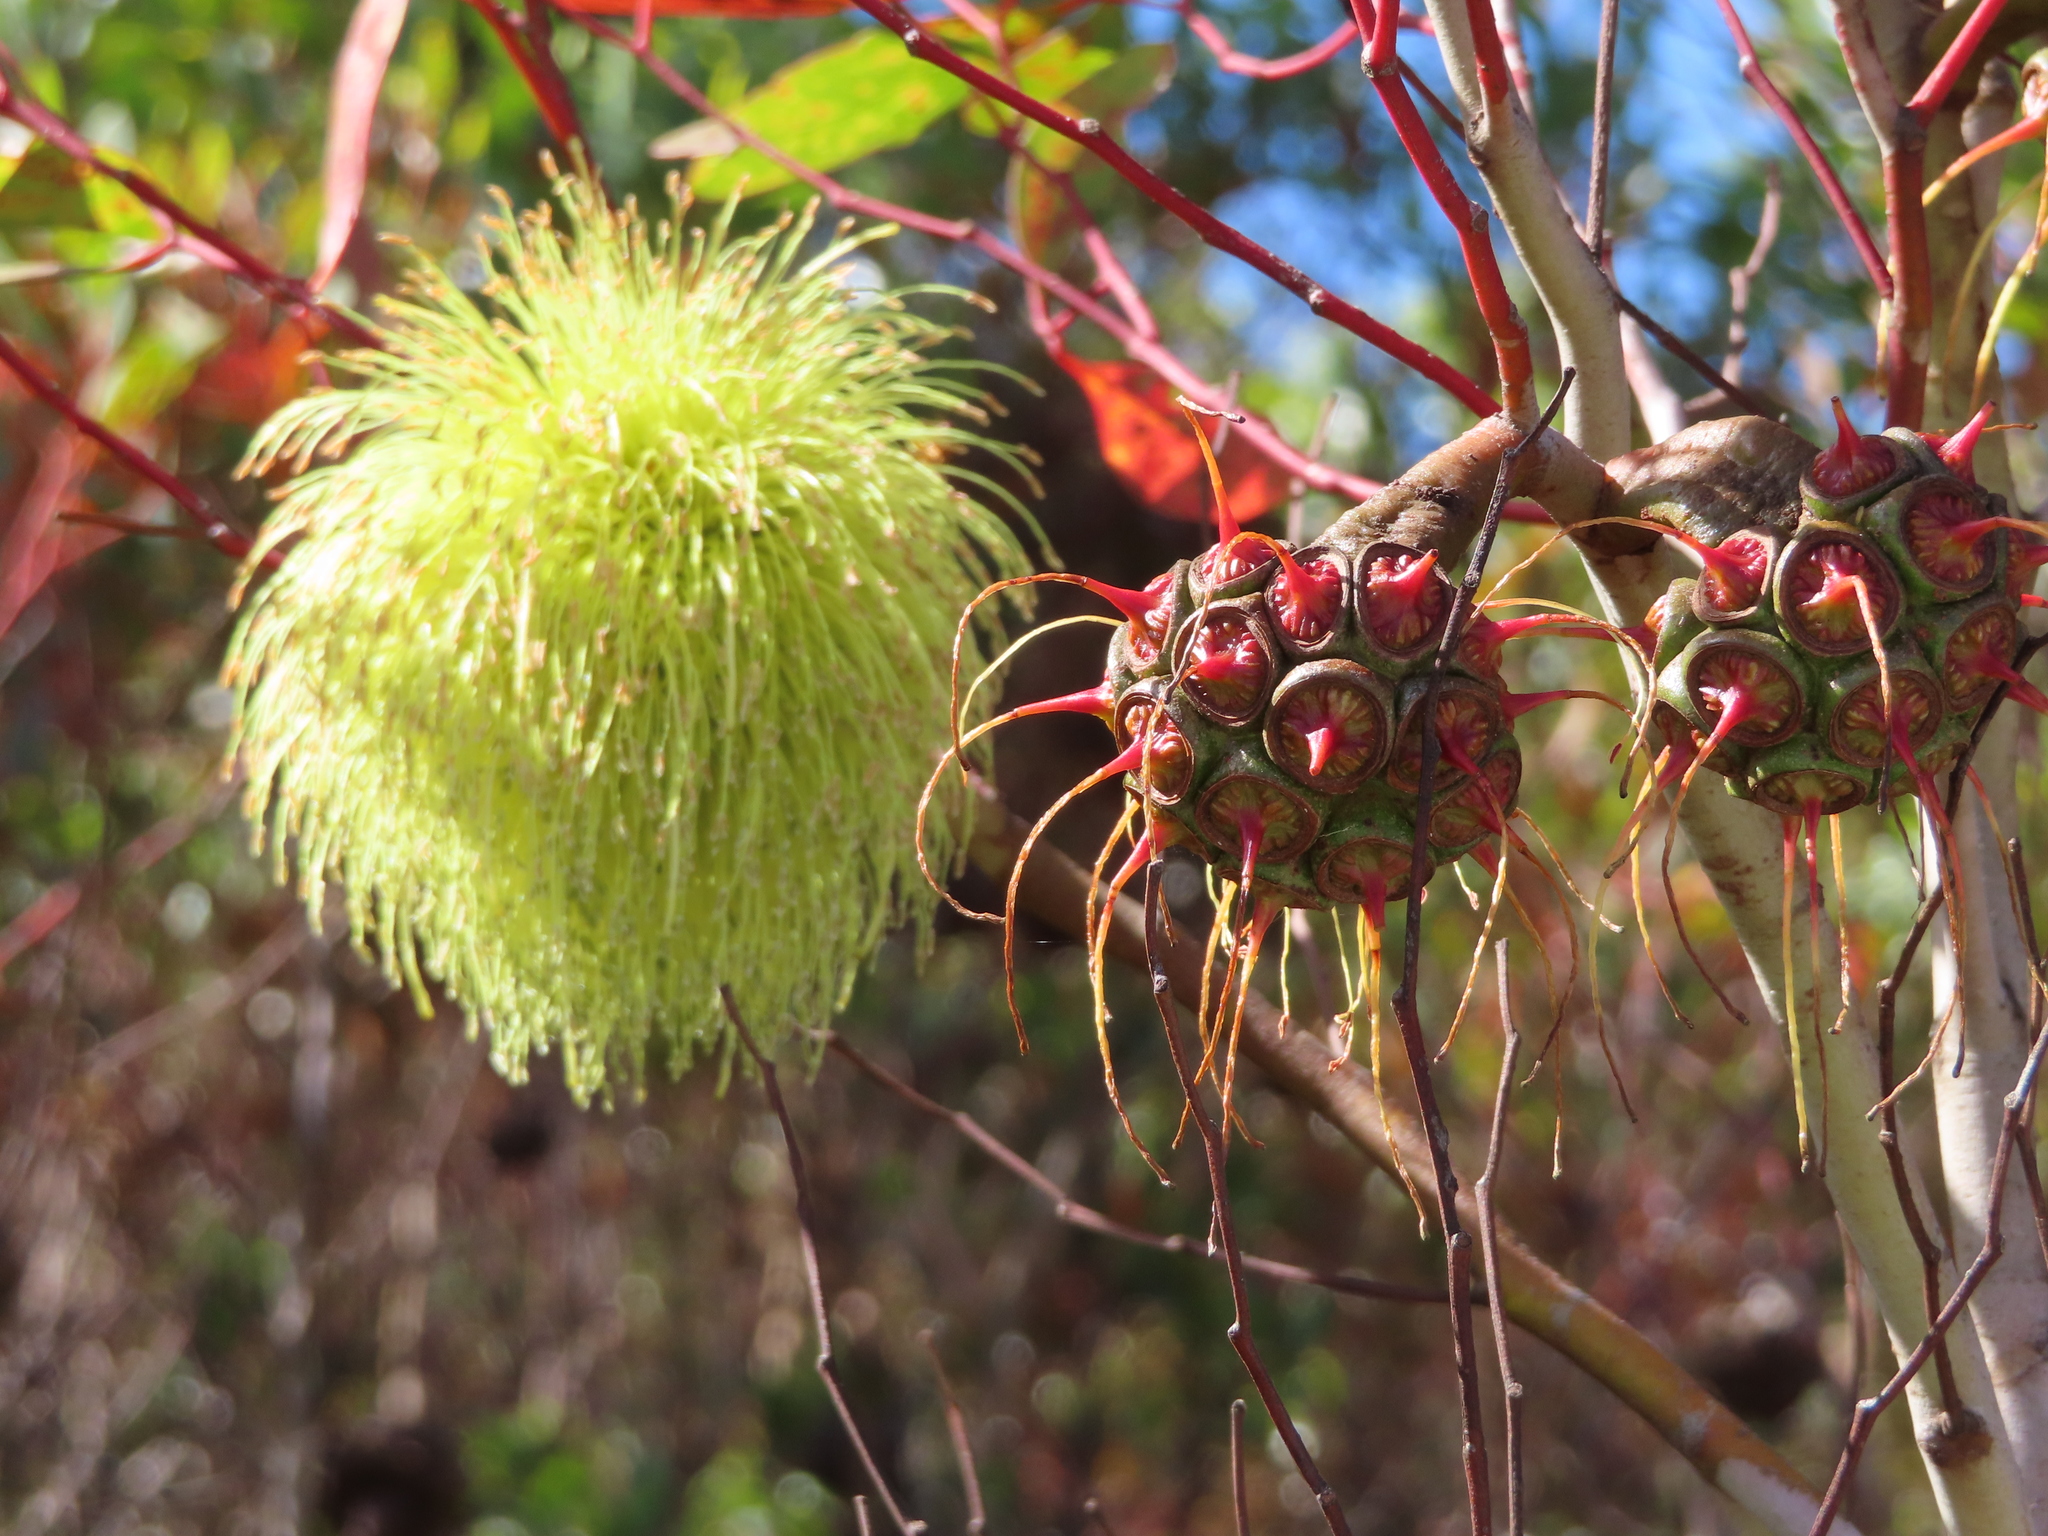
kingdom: Plantae
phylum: Tracheophyta
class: Magnoliopsida
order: Myrtales
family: Myrtaceae
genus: Eucalyptus
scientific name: Eucalyptus conferruminata
